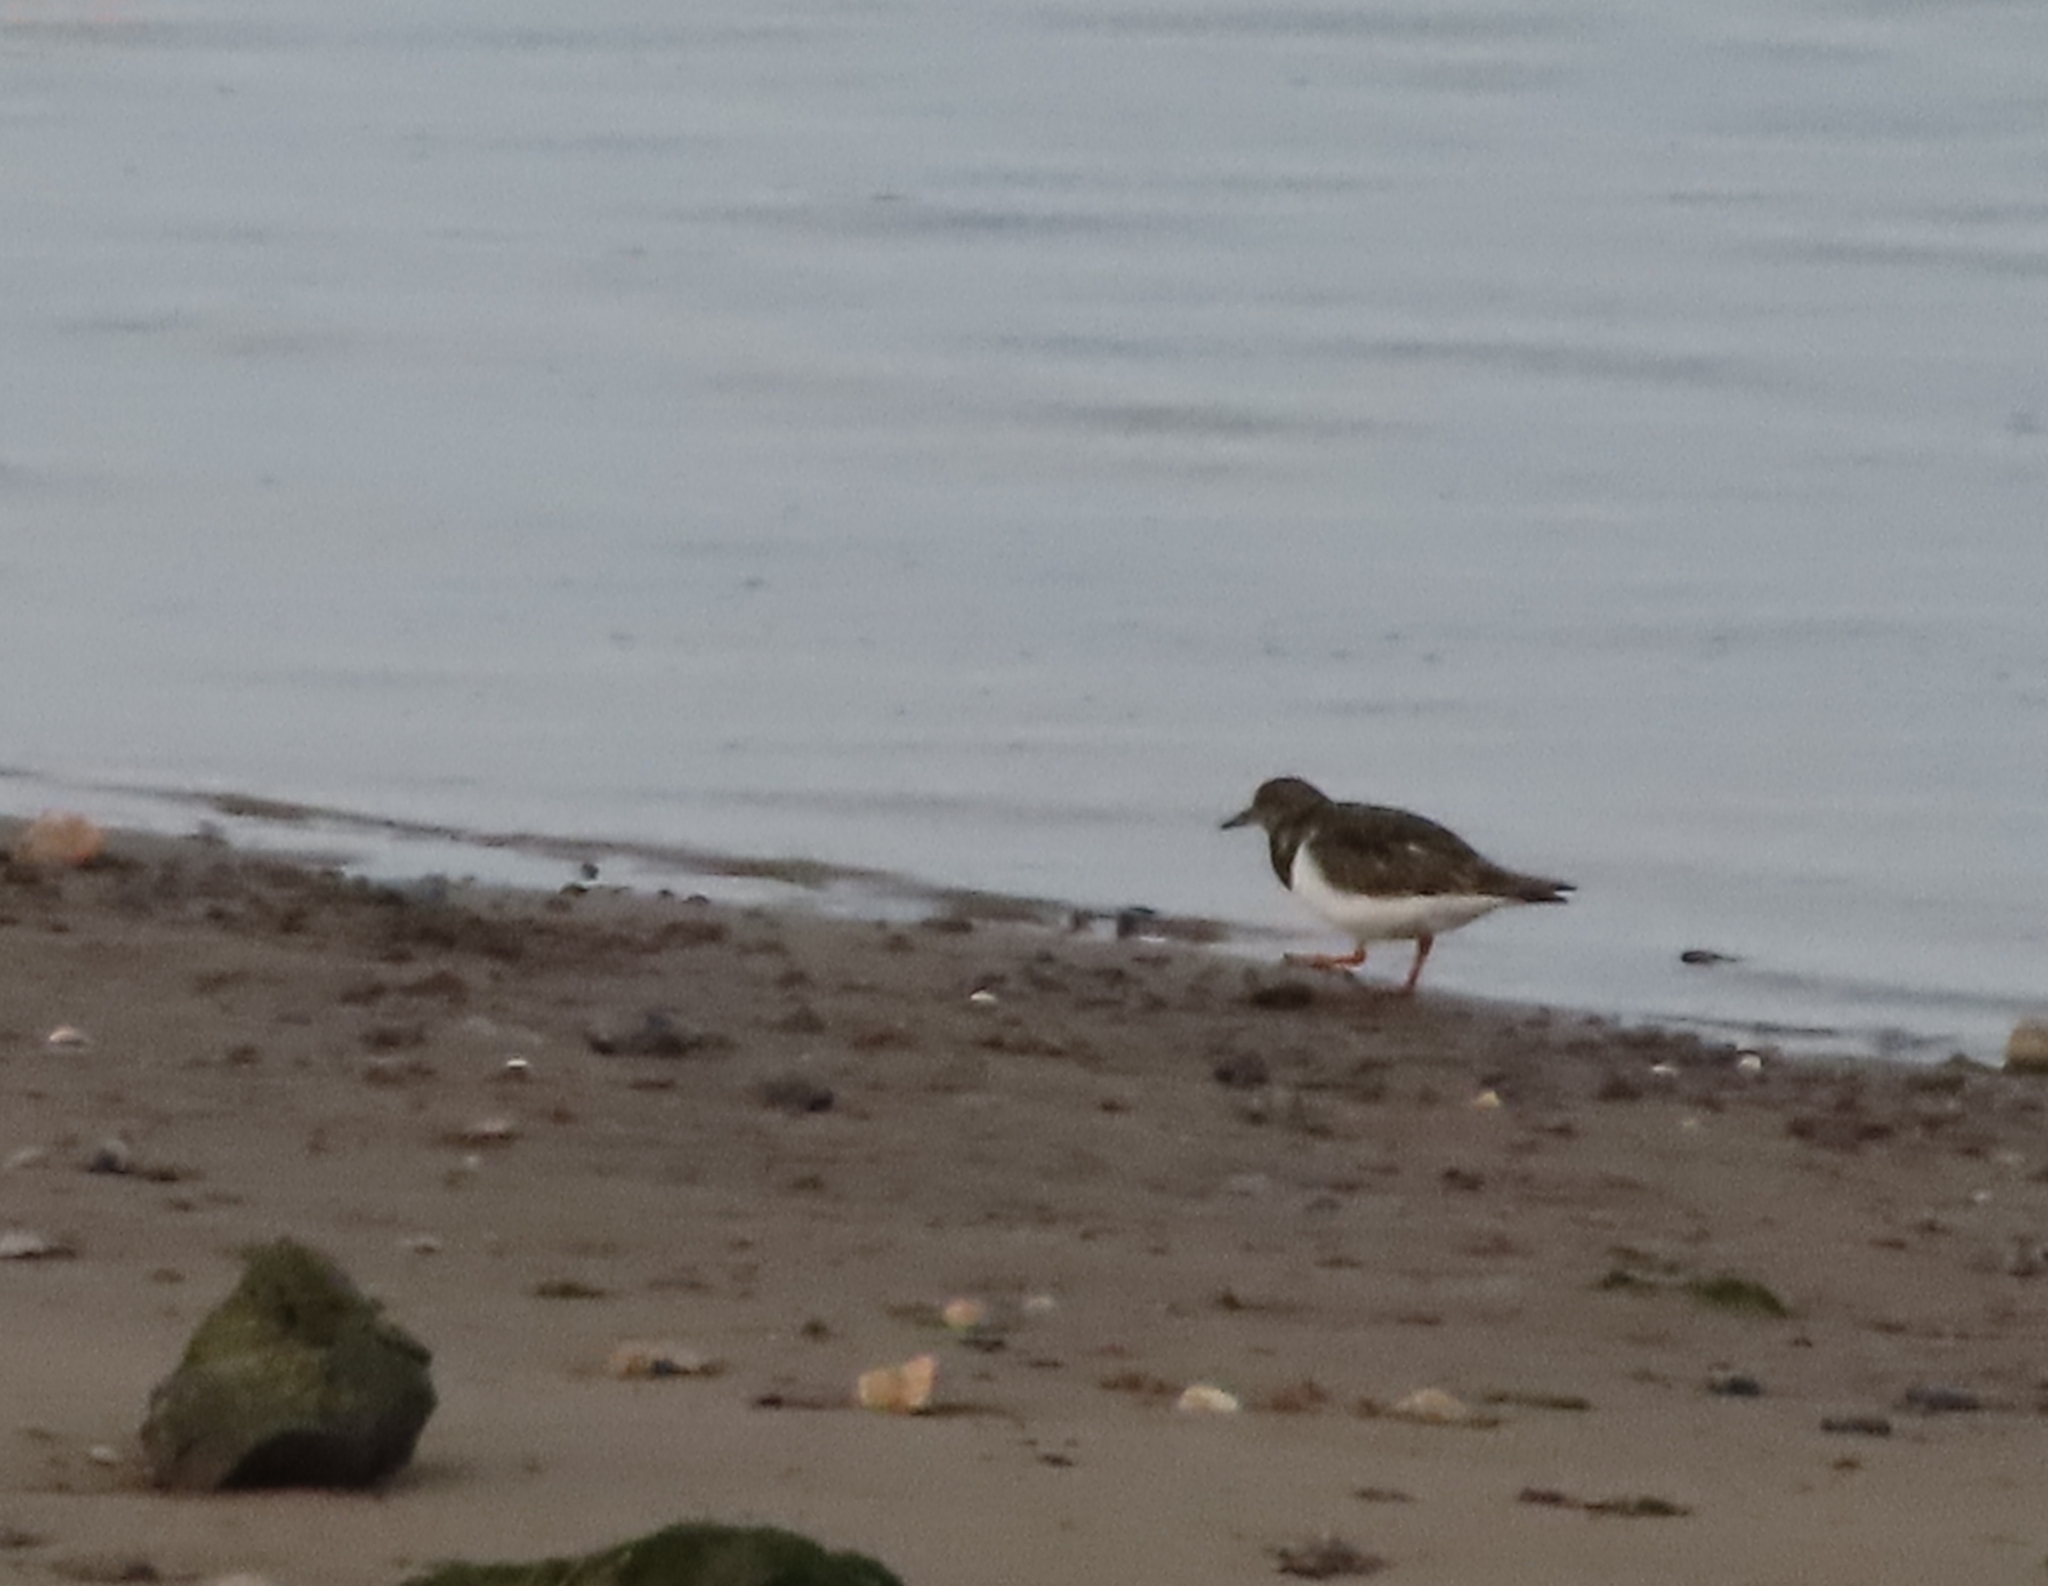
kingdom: Animalia
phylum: Chordata
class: Aves
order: Charadriiformes
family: Scolopacidae
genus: Arenaria
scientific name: Arenaria interpres
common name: Ruddy turnstone
